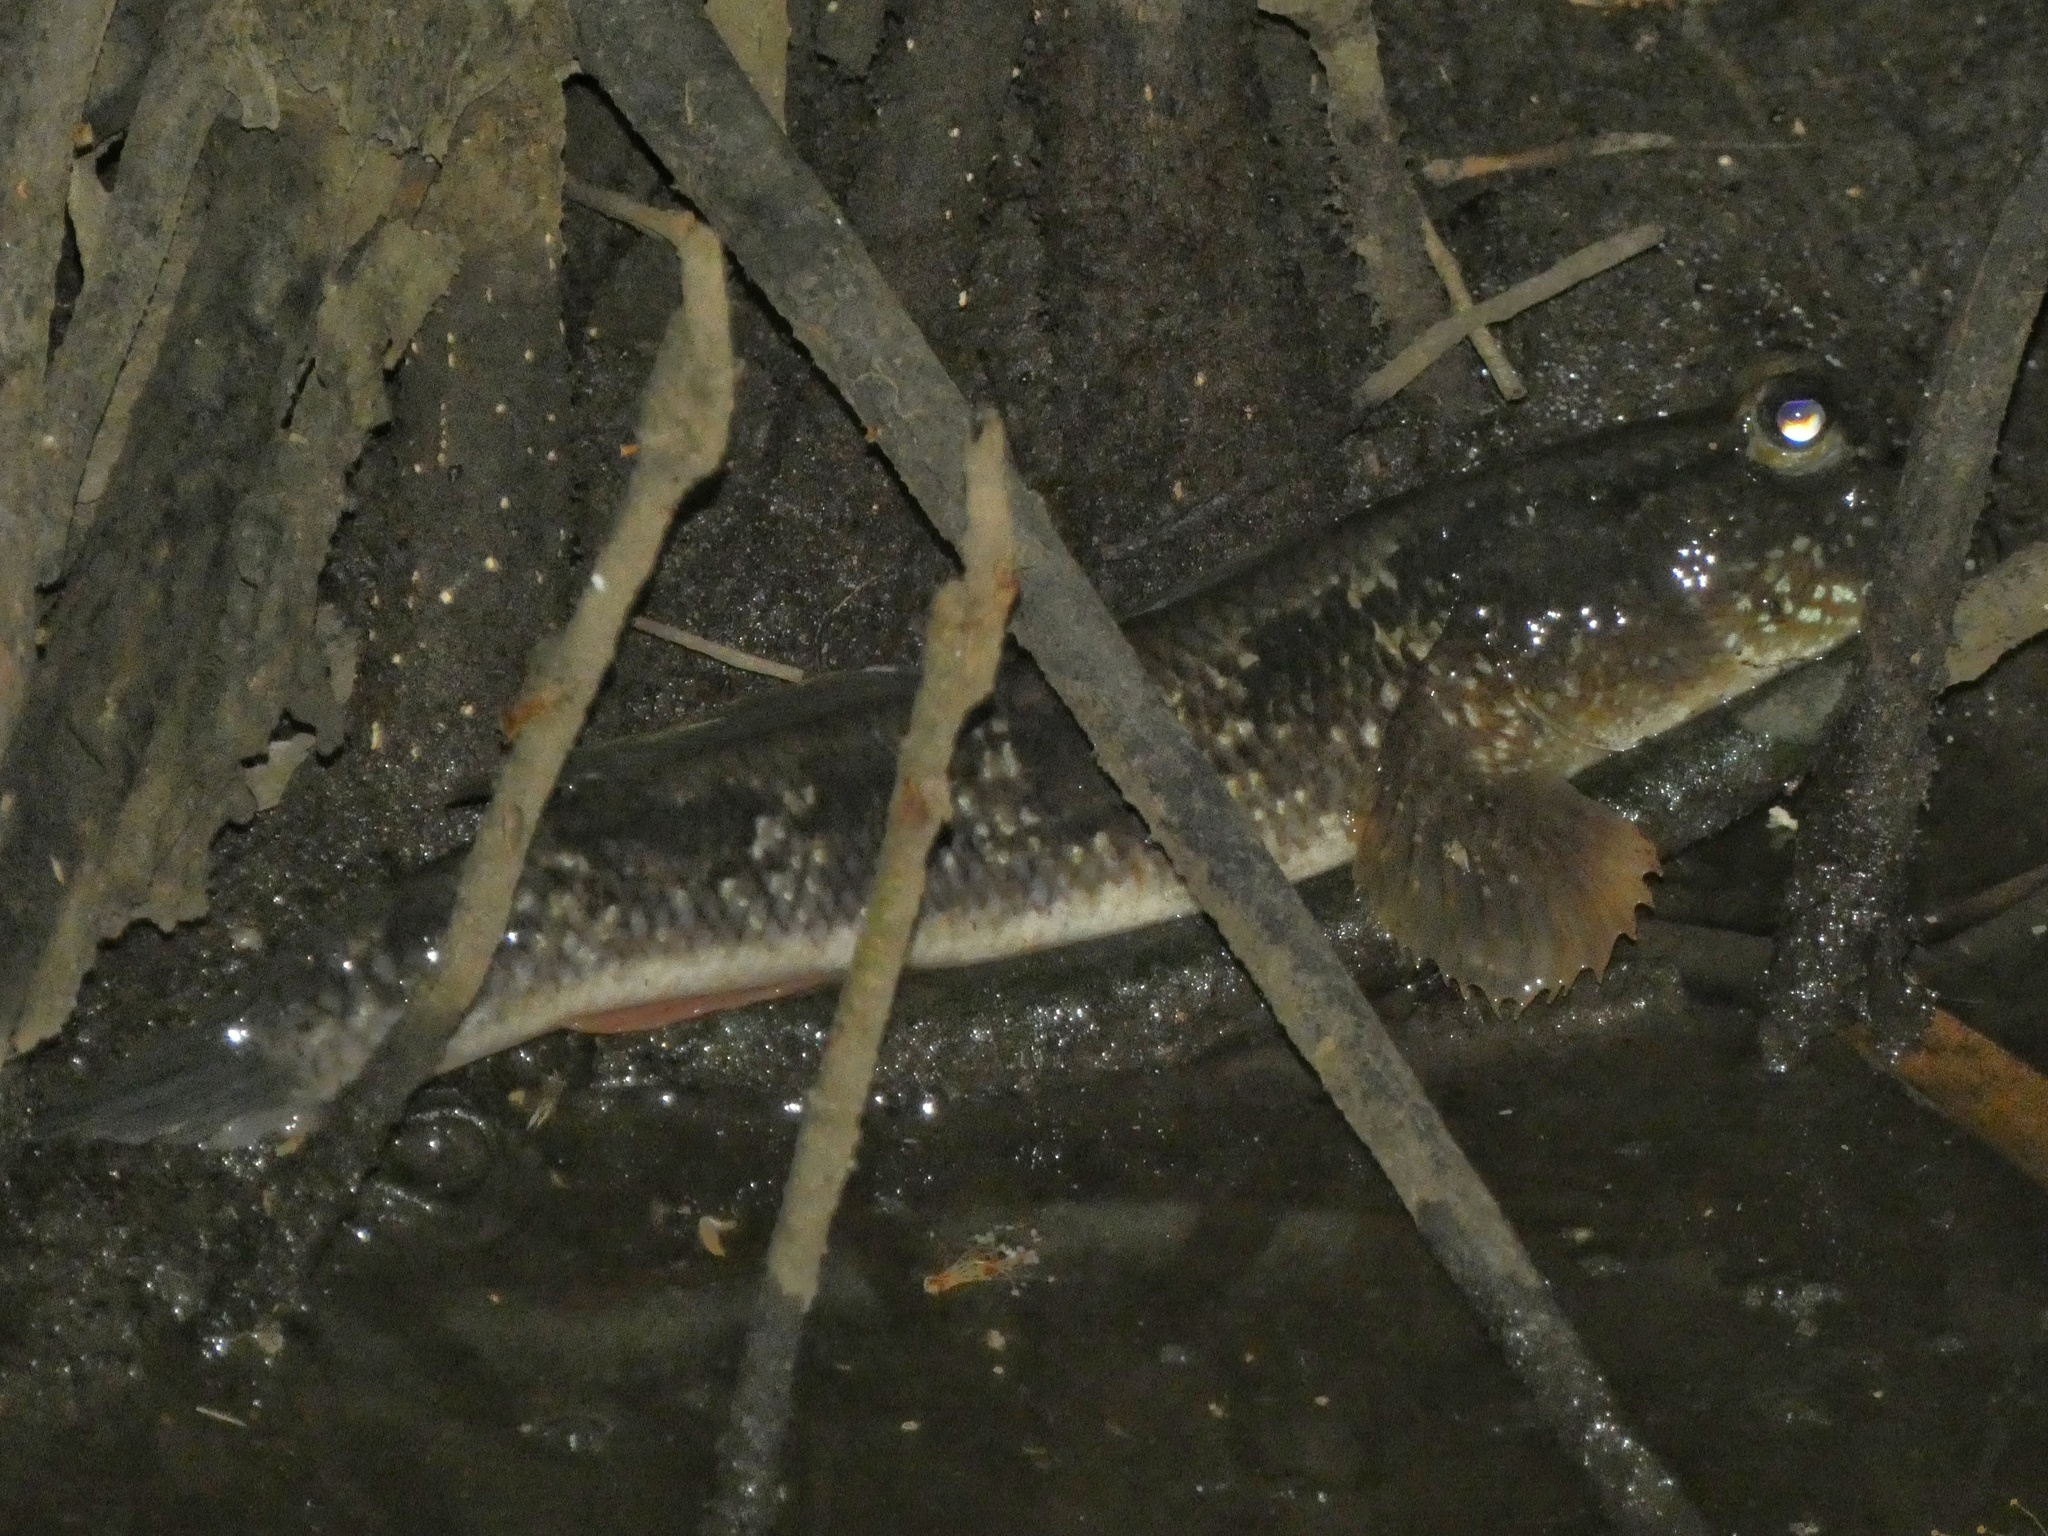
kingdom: Animalia
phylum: Chordata
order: Perciformes
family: Gobiidae
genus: Periophthalmodon
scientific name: Periophthalmodon freycineti
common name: Giant mudskipper
